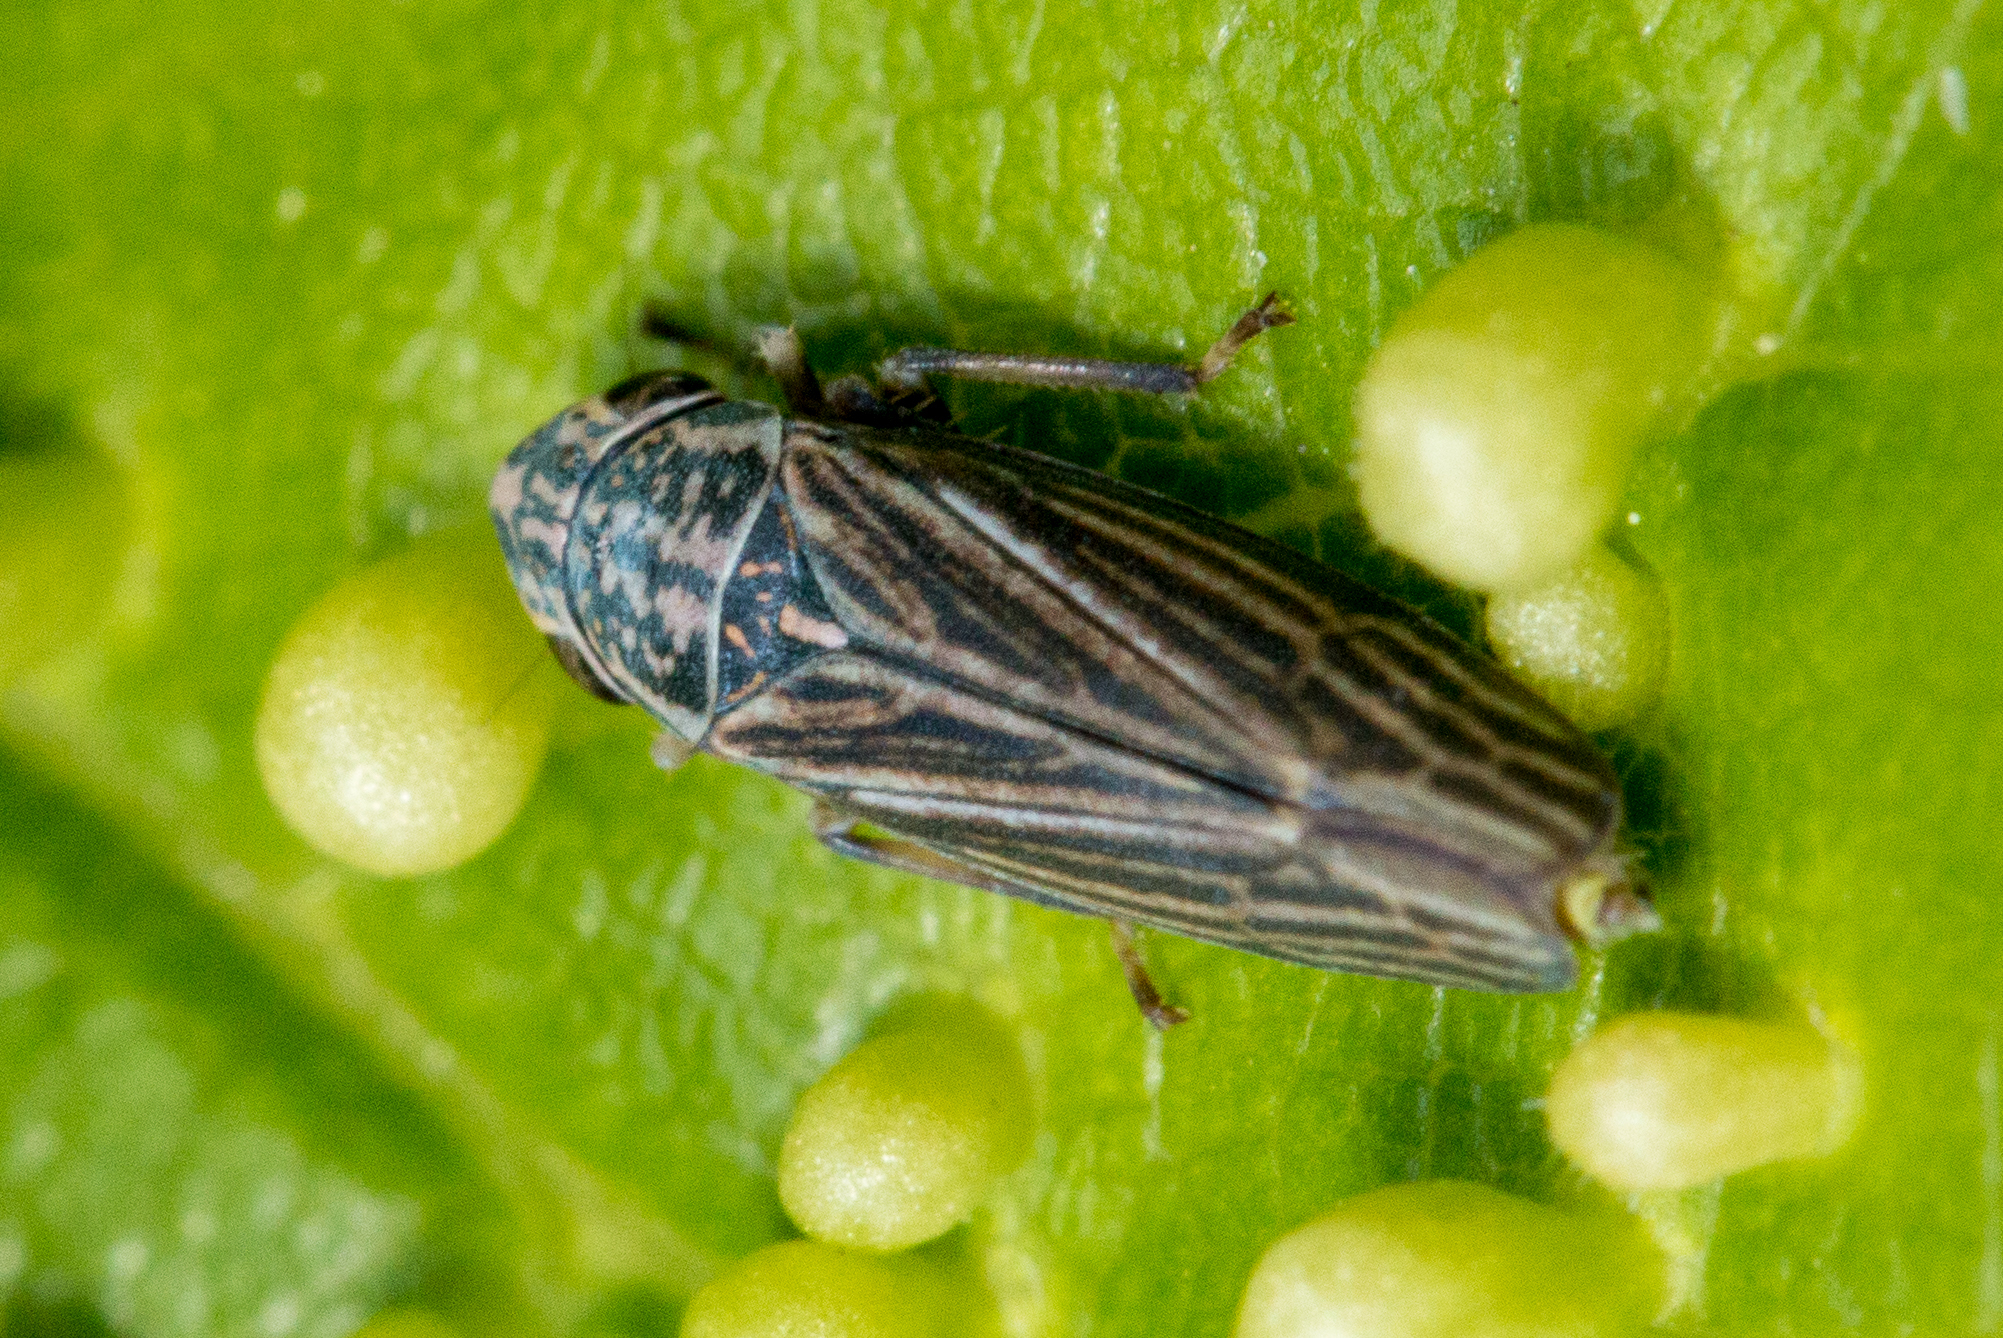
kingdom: Animalia
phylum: Arthropoda
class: Insecta
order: Hemiptera
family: Cicadellidae
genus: Neokolla
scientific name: Neokolla hieroglyphica
